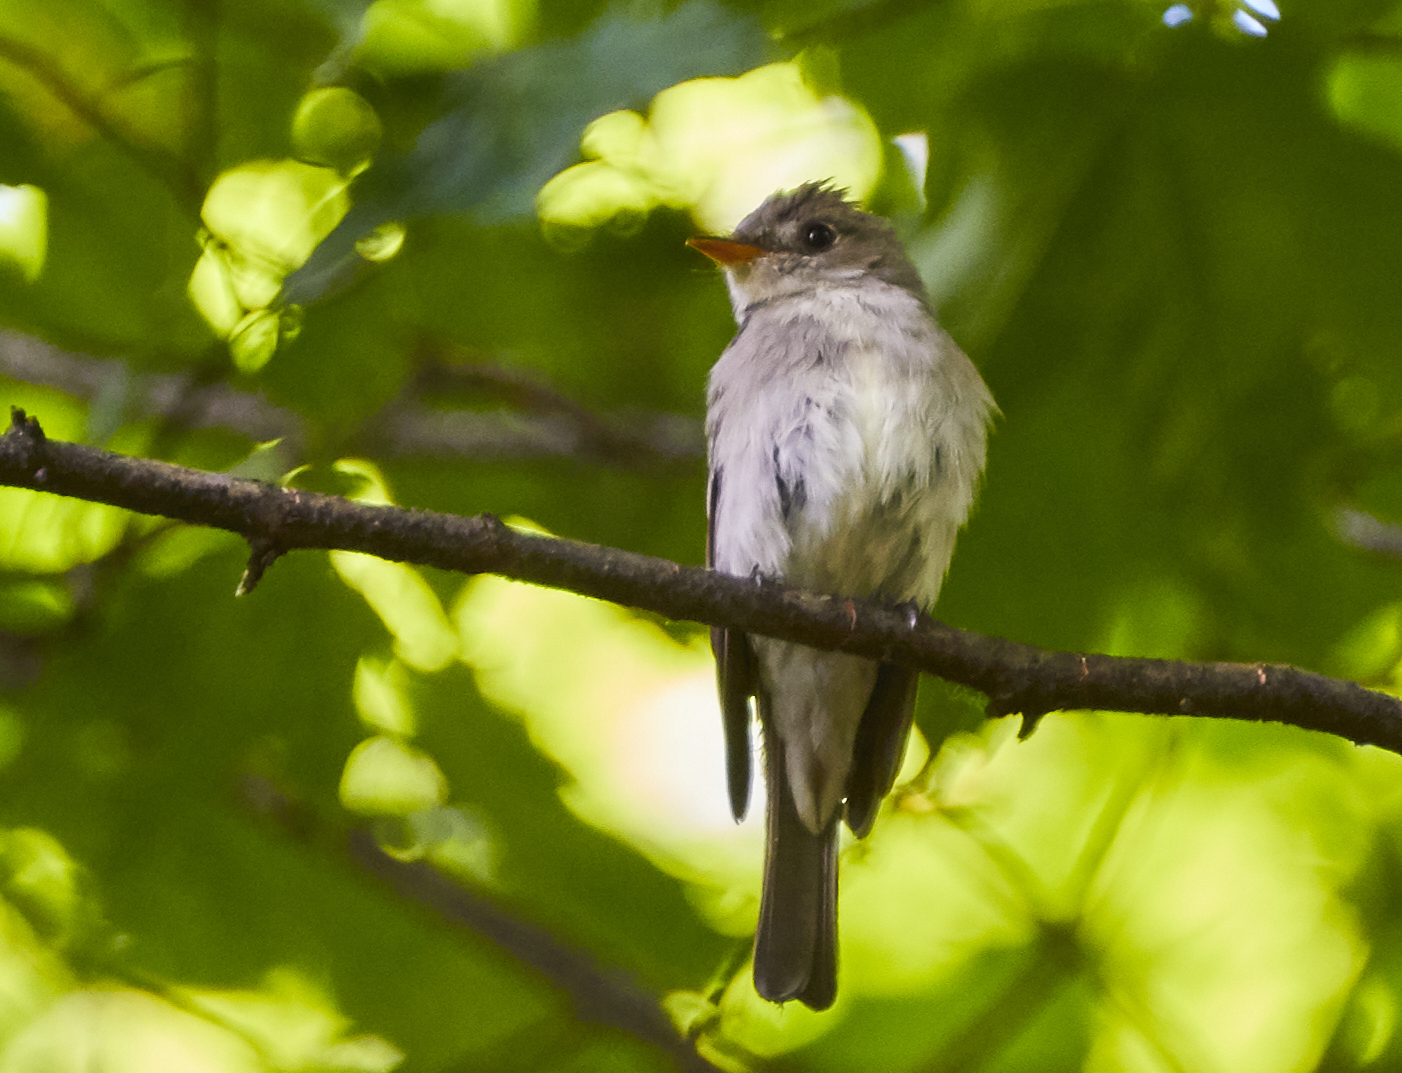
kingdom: Animalia
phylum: Chordata
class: Aves
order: Passeriformes
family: Tyrannidae
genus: Contopus
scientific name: Contopus virens
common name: Eastern wood-pewee
